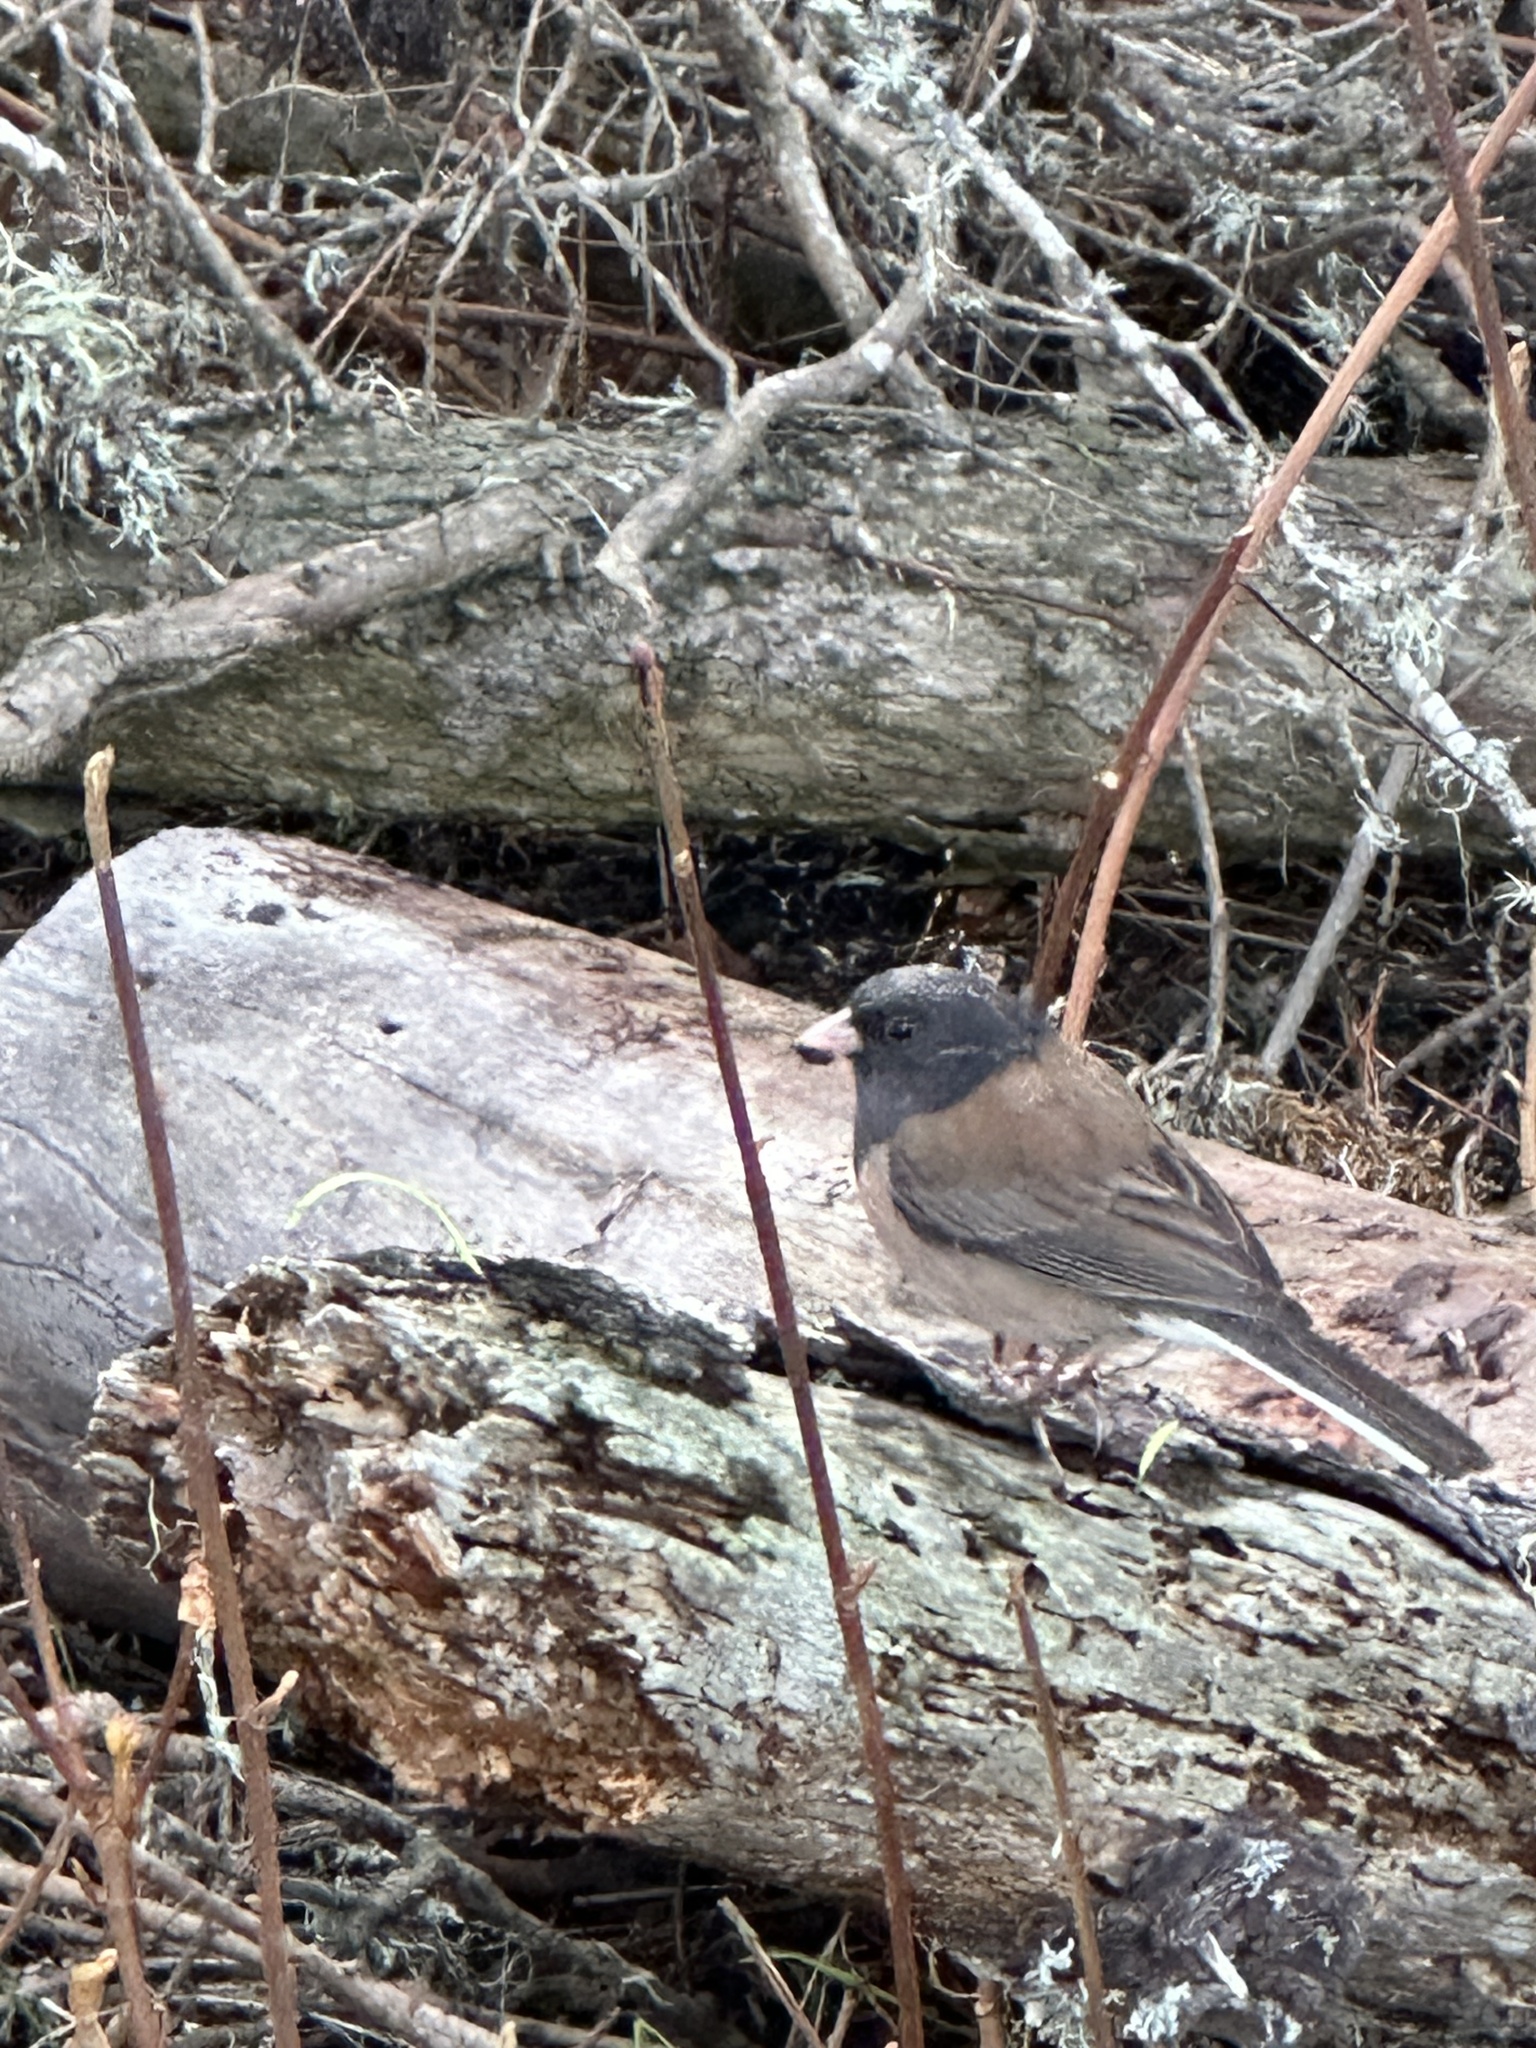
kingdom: Animalia
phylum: Chordata
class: Aves
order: Passeriformes
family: Passerellidae
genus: Junco
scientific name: Junco hyemalis
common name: Dark-eyed junco
